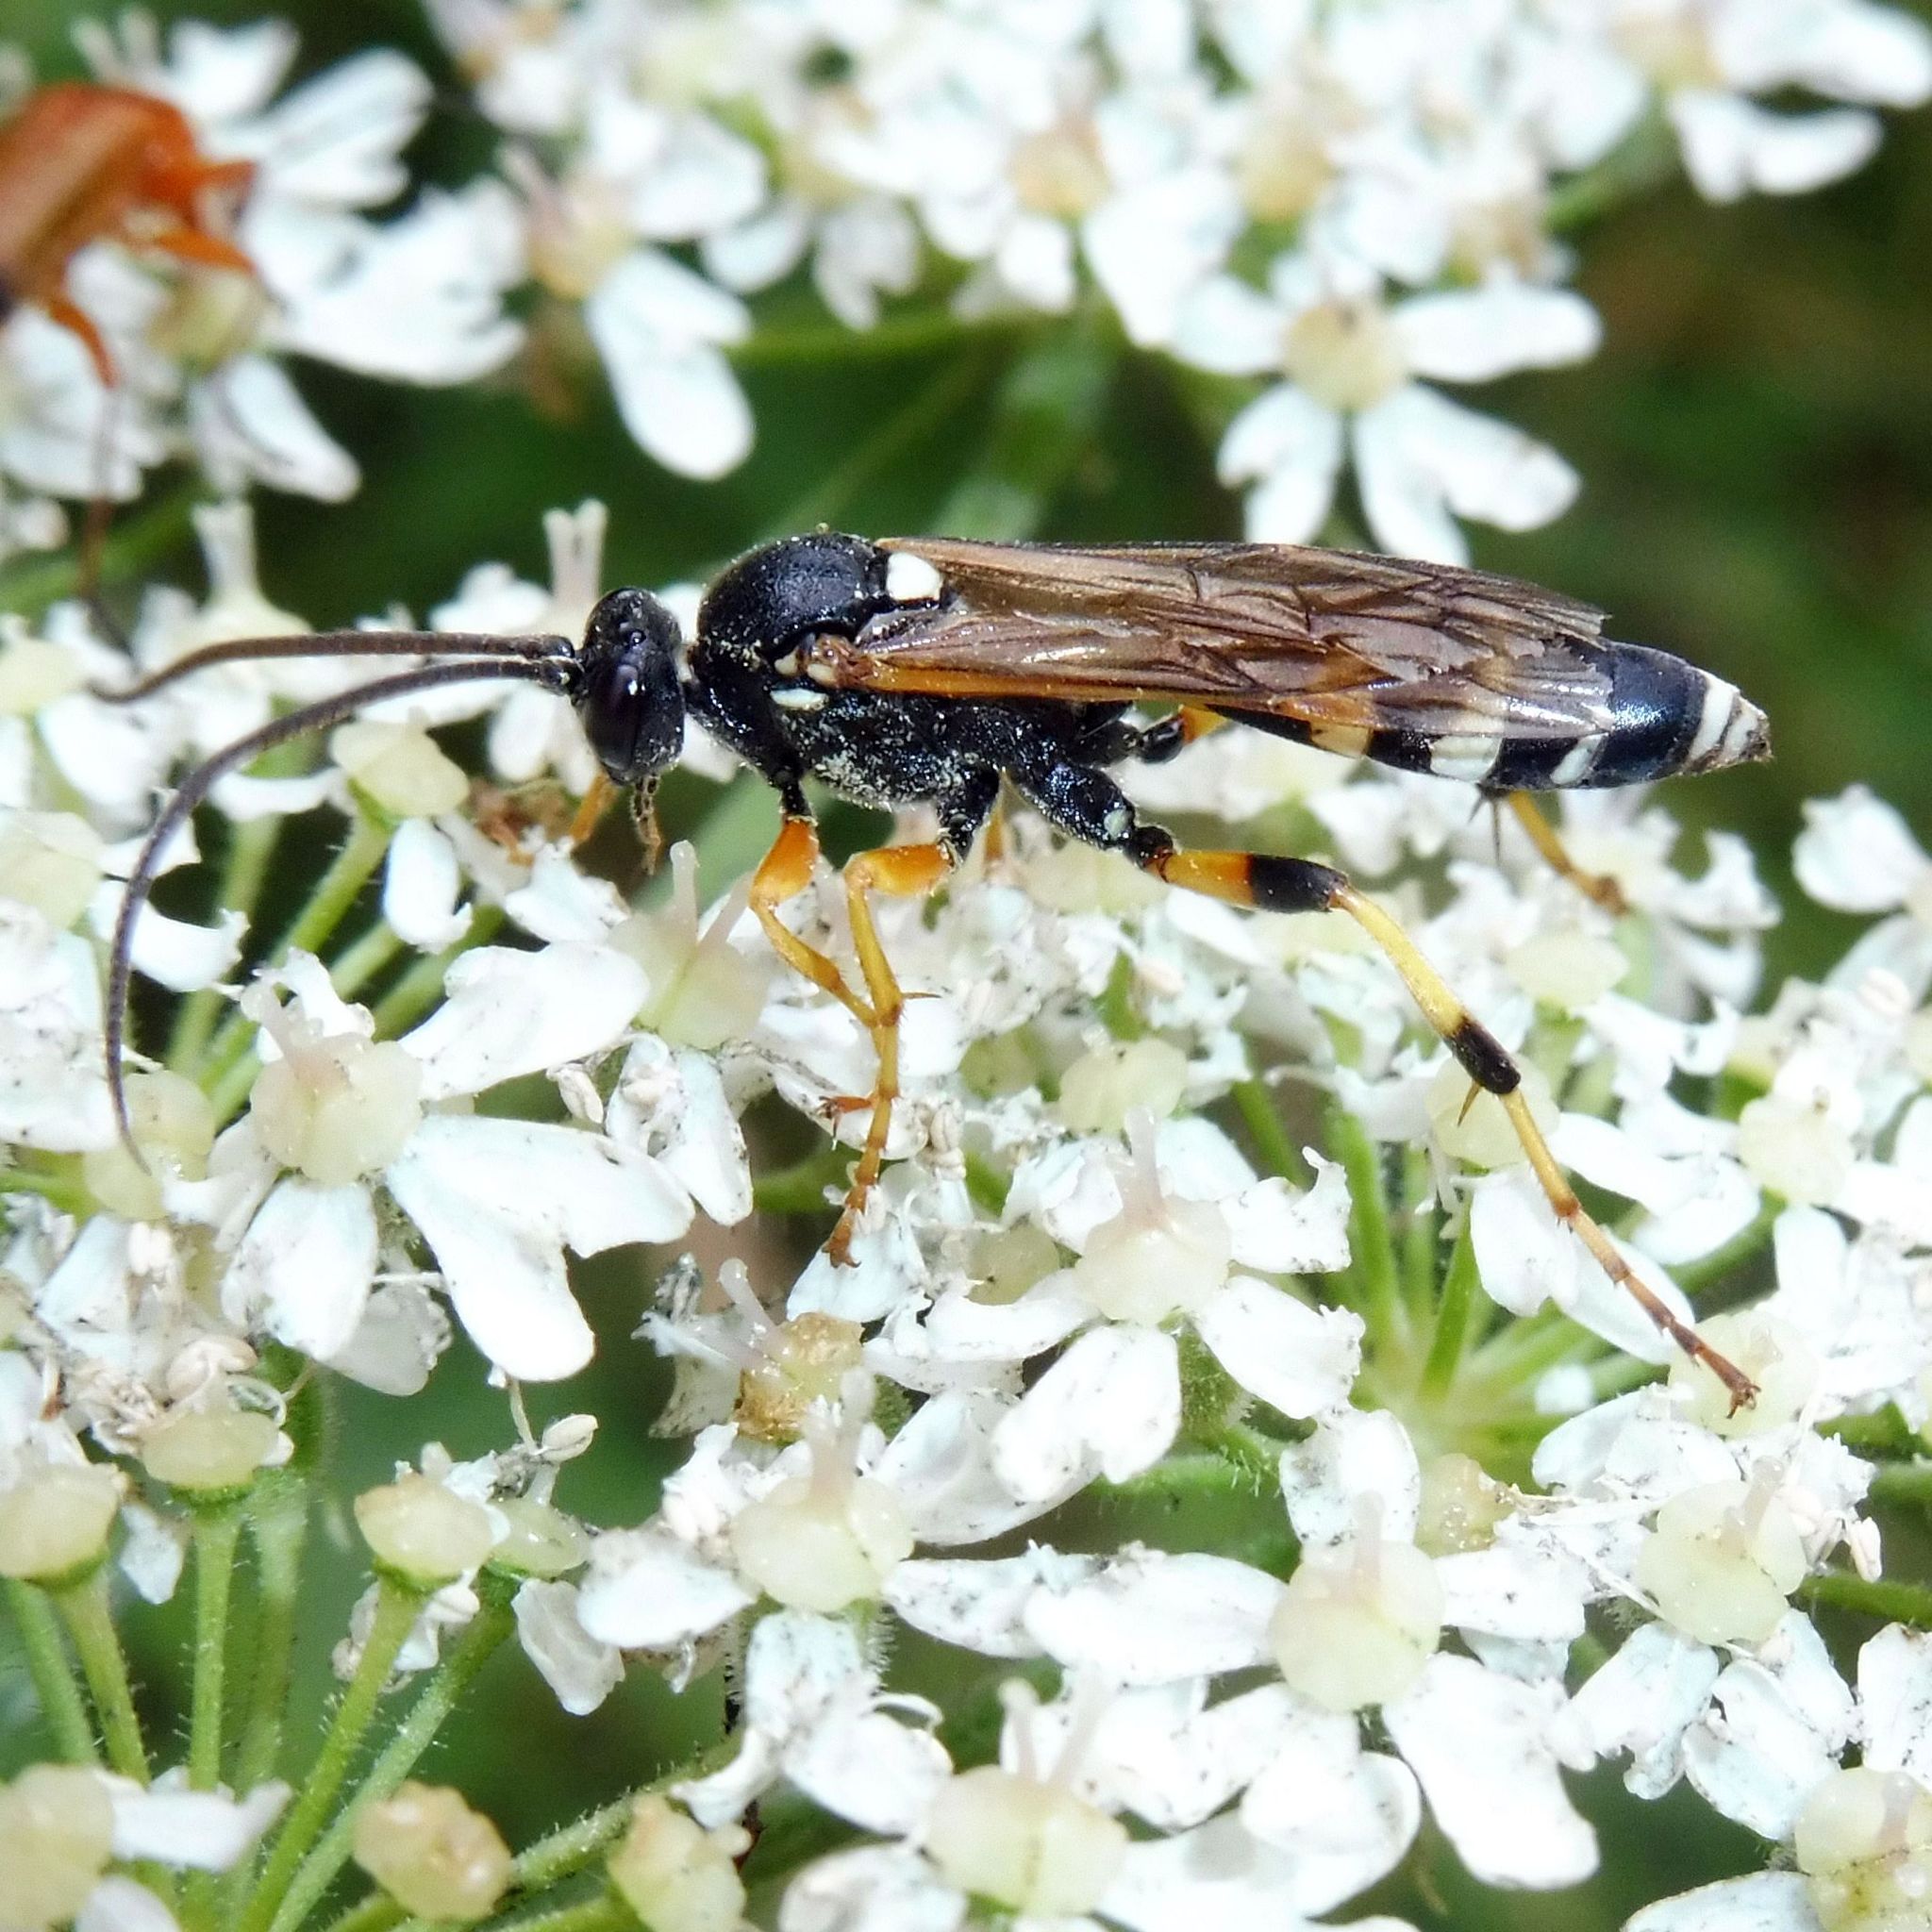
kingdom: Animalia
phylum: Arthropoda
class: Insecta
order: Hymenoptera
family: Ichneumonidae
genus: Ichneumon
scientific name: Ichneumon sarcitorius
